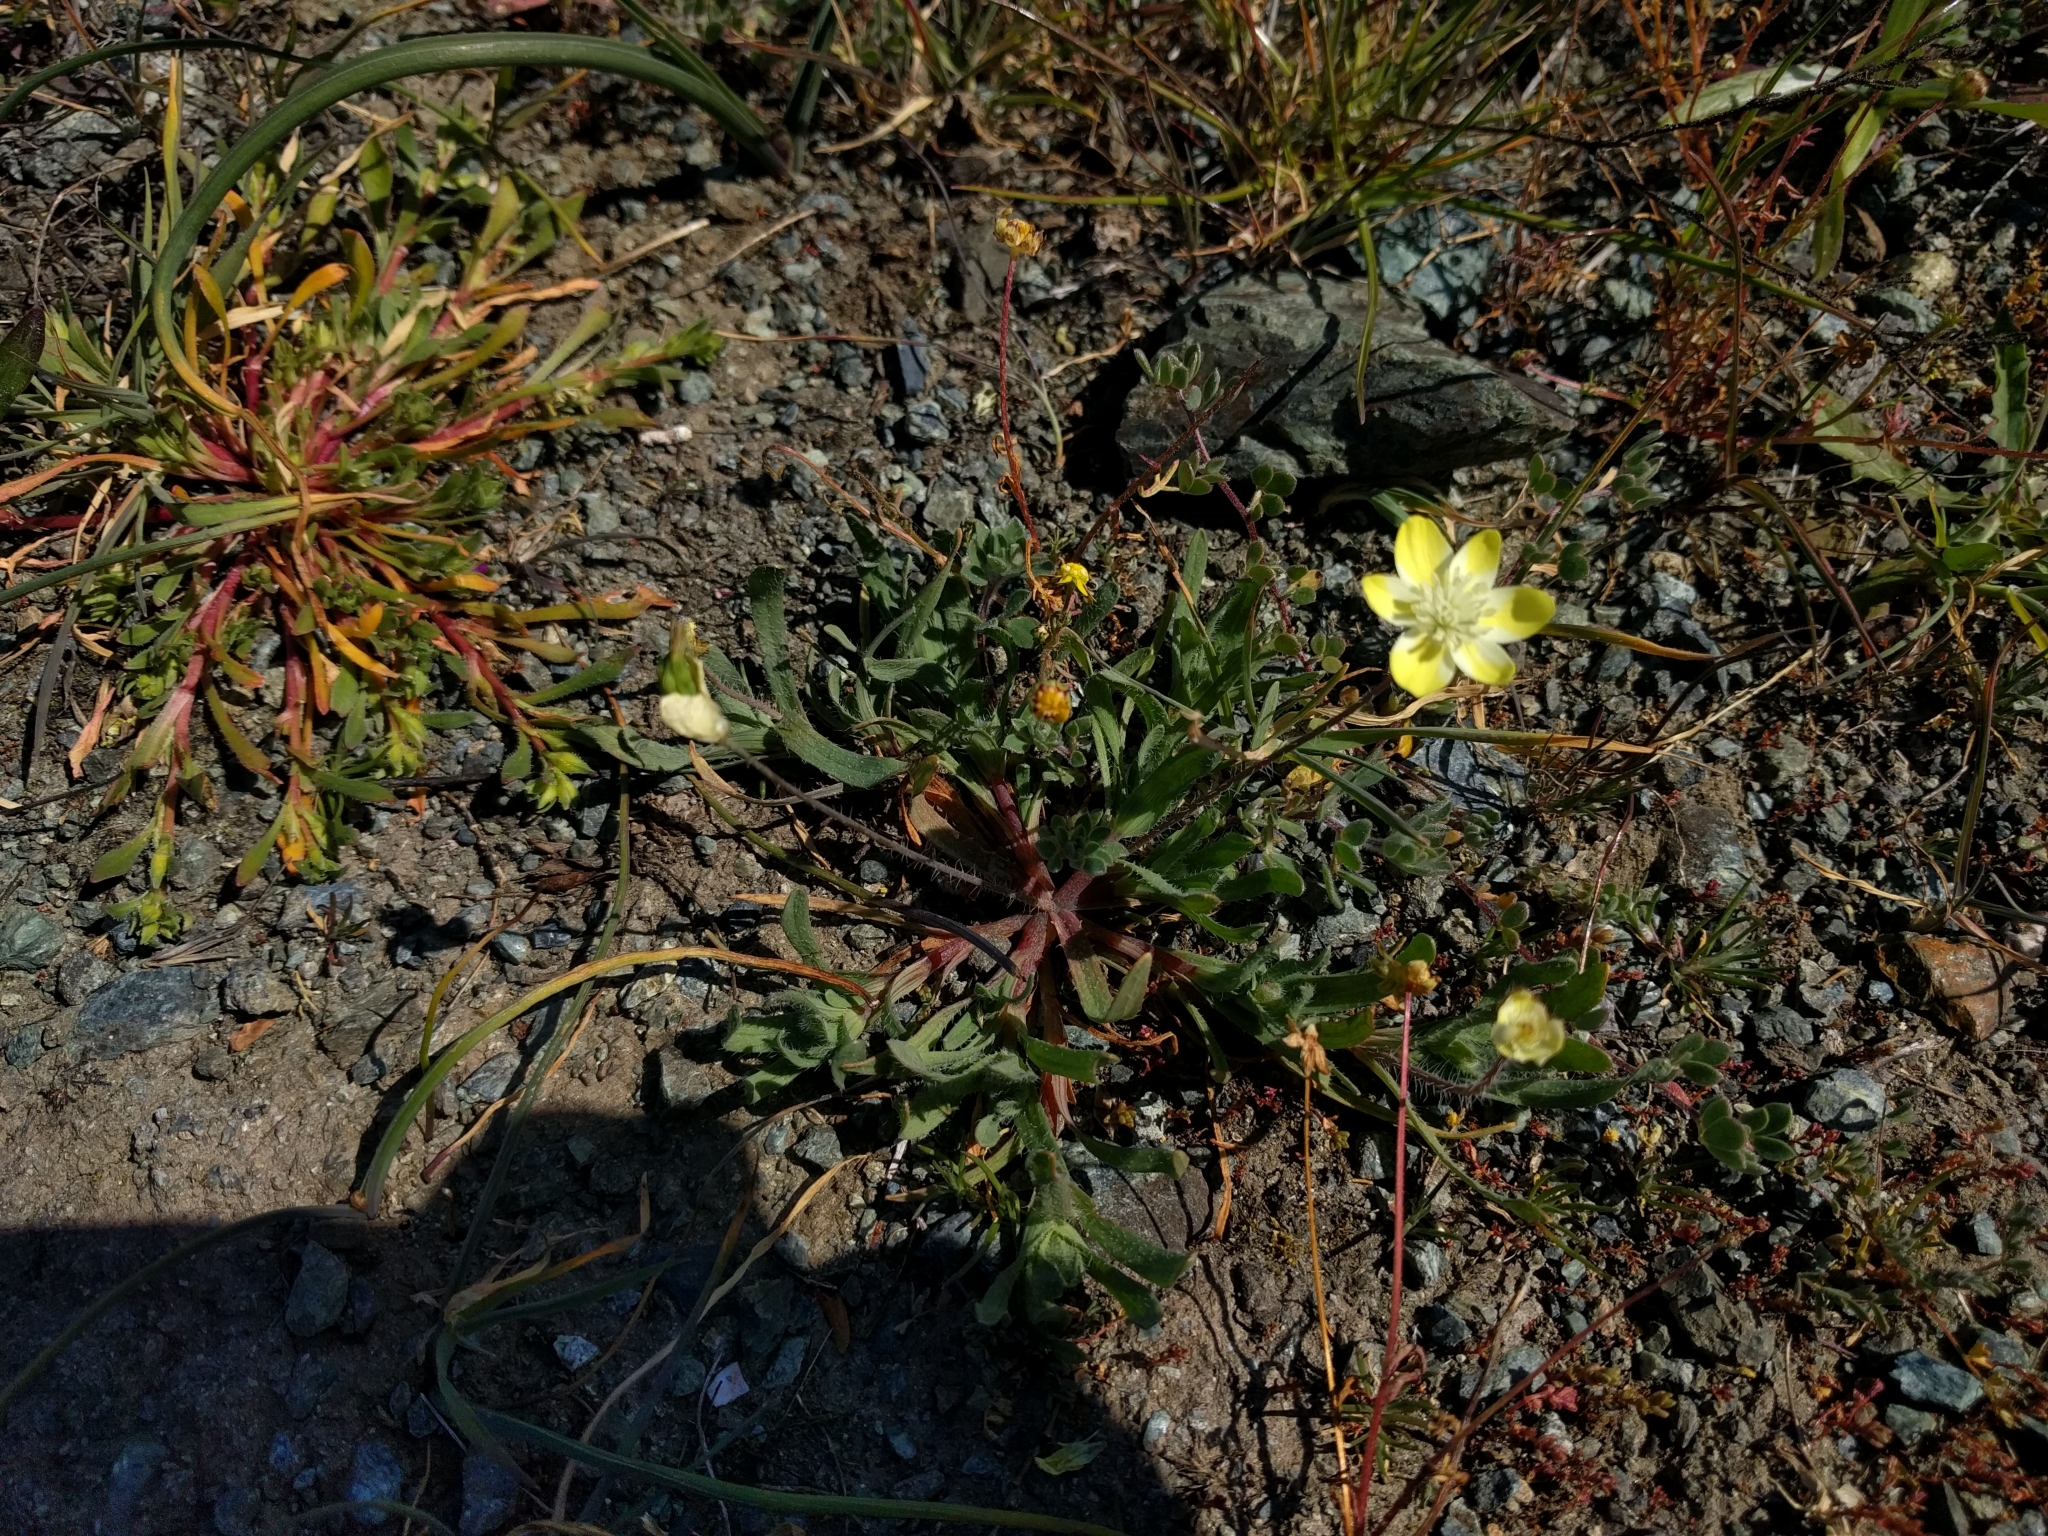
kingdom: Plantae
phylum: Tracheophyta
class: Magnoliopsida
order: Ranunculales
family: Papaveraceae
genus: Platystemon
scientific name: Platystemon californicus
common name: Cream-cups
